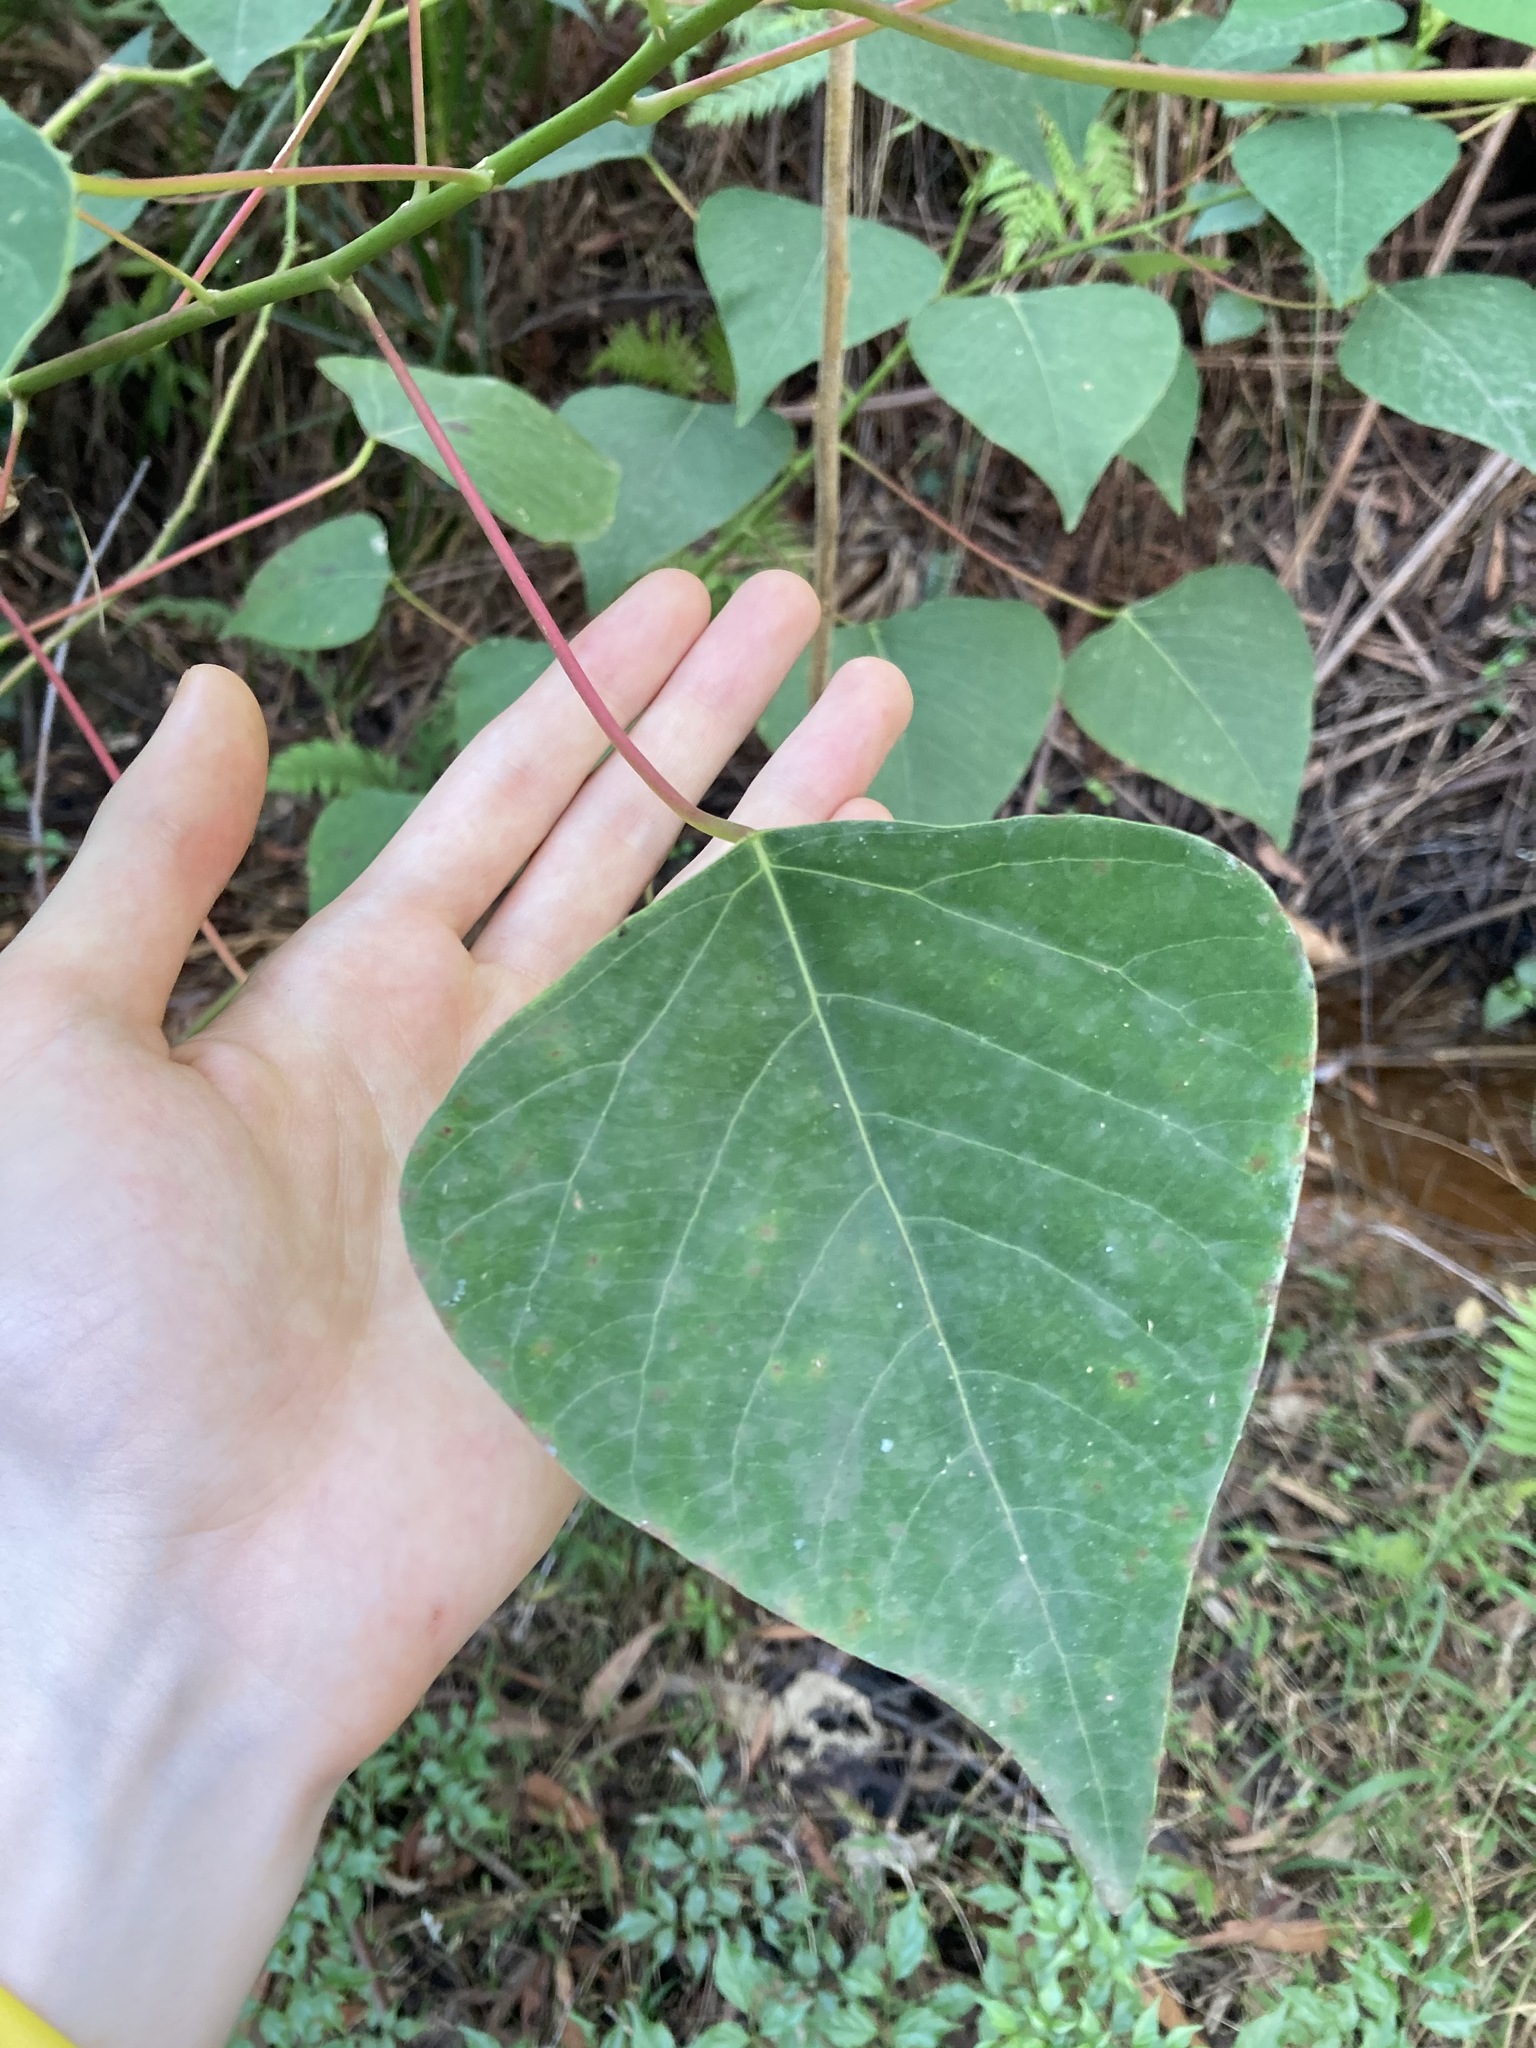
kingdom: Plantae
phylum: Tracheophyta
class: Magnoliopsida
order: Malpighiales
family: Euphorbiaceae
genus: Homalanthus
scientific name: Homalanthus populifolius
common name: Queensland poplar
